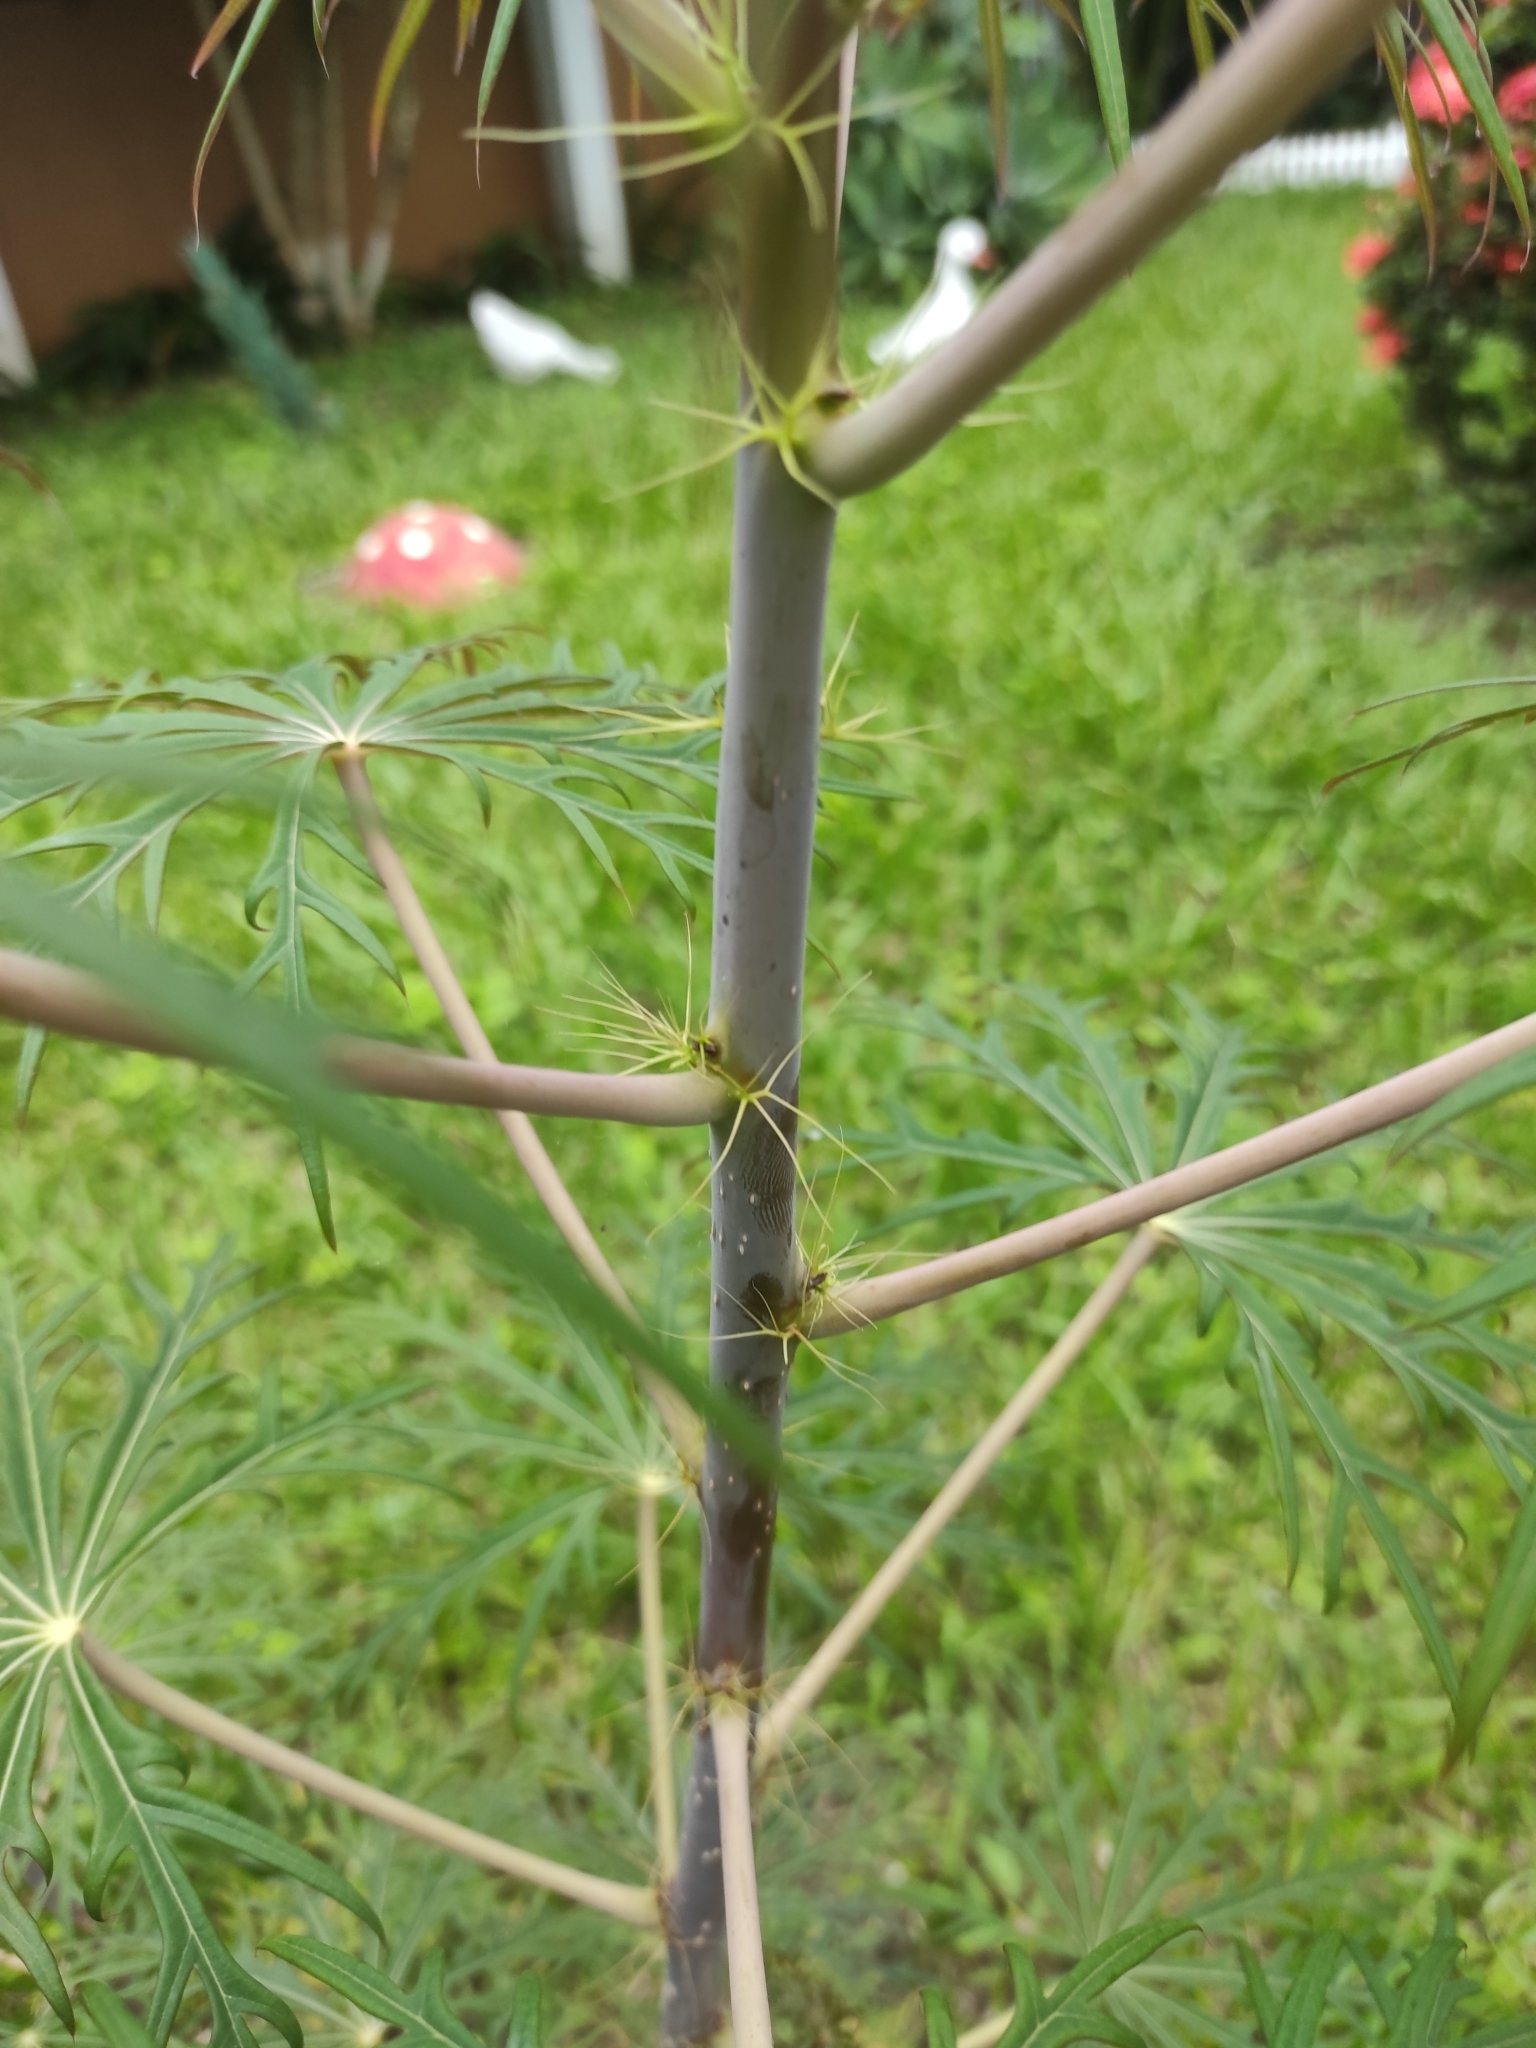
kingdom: Plantae
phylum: Tracheophyta
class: Magnoliopsida
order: Malpighiales
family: Euphorbiaceae
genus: Jatropha
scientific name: Jatropha multifida
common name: Coralbush
